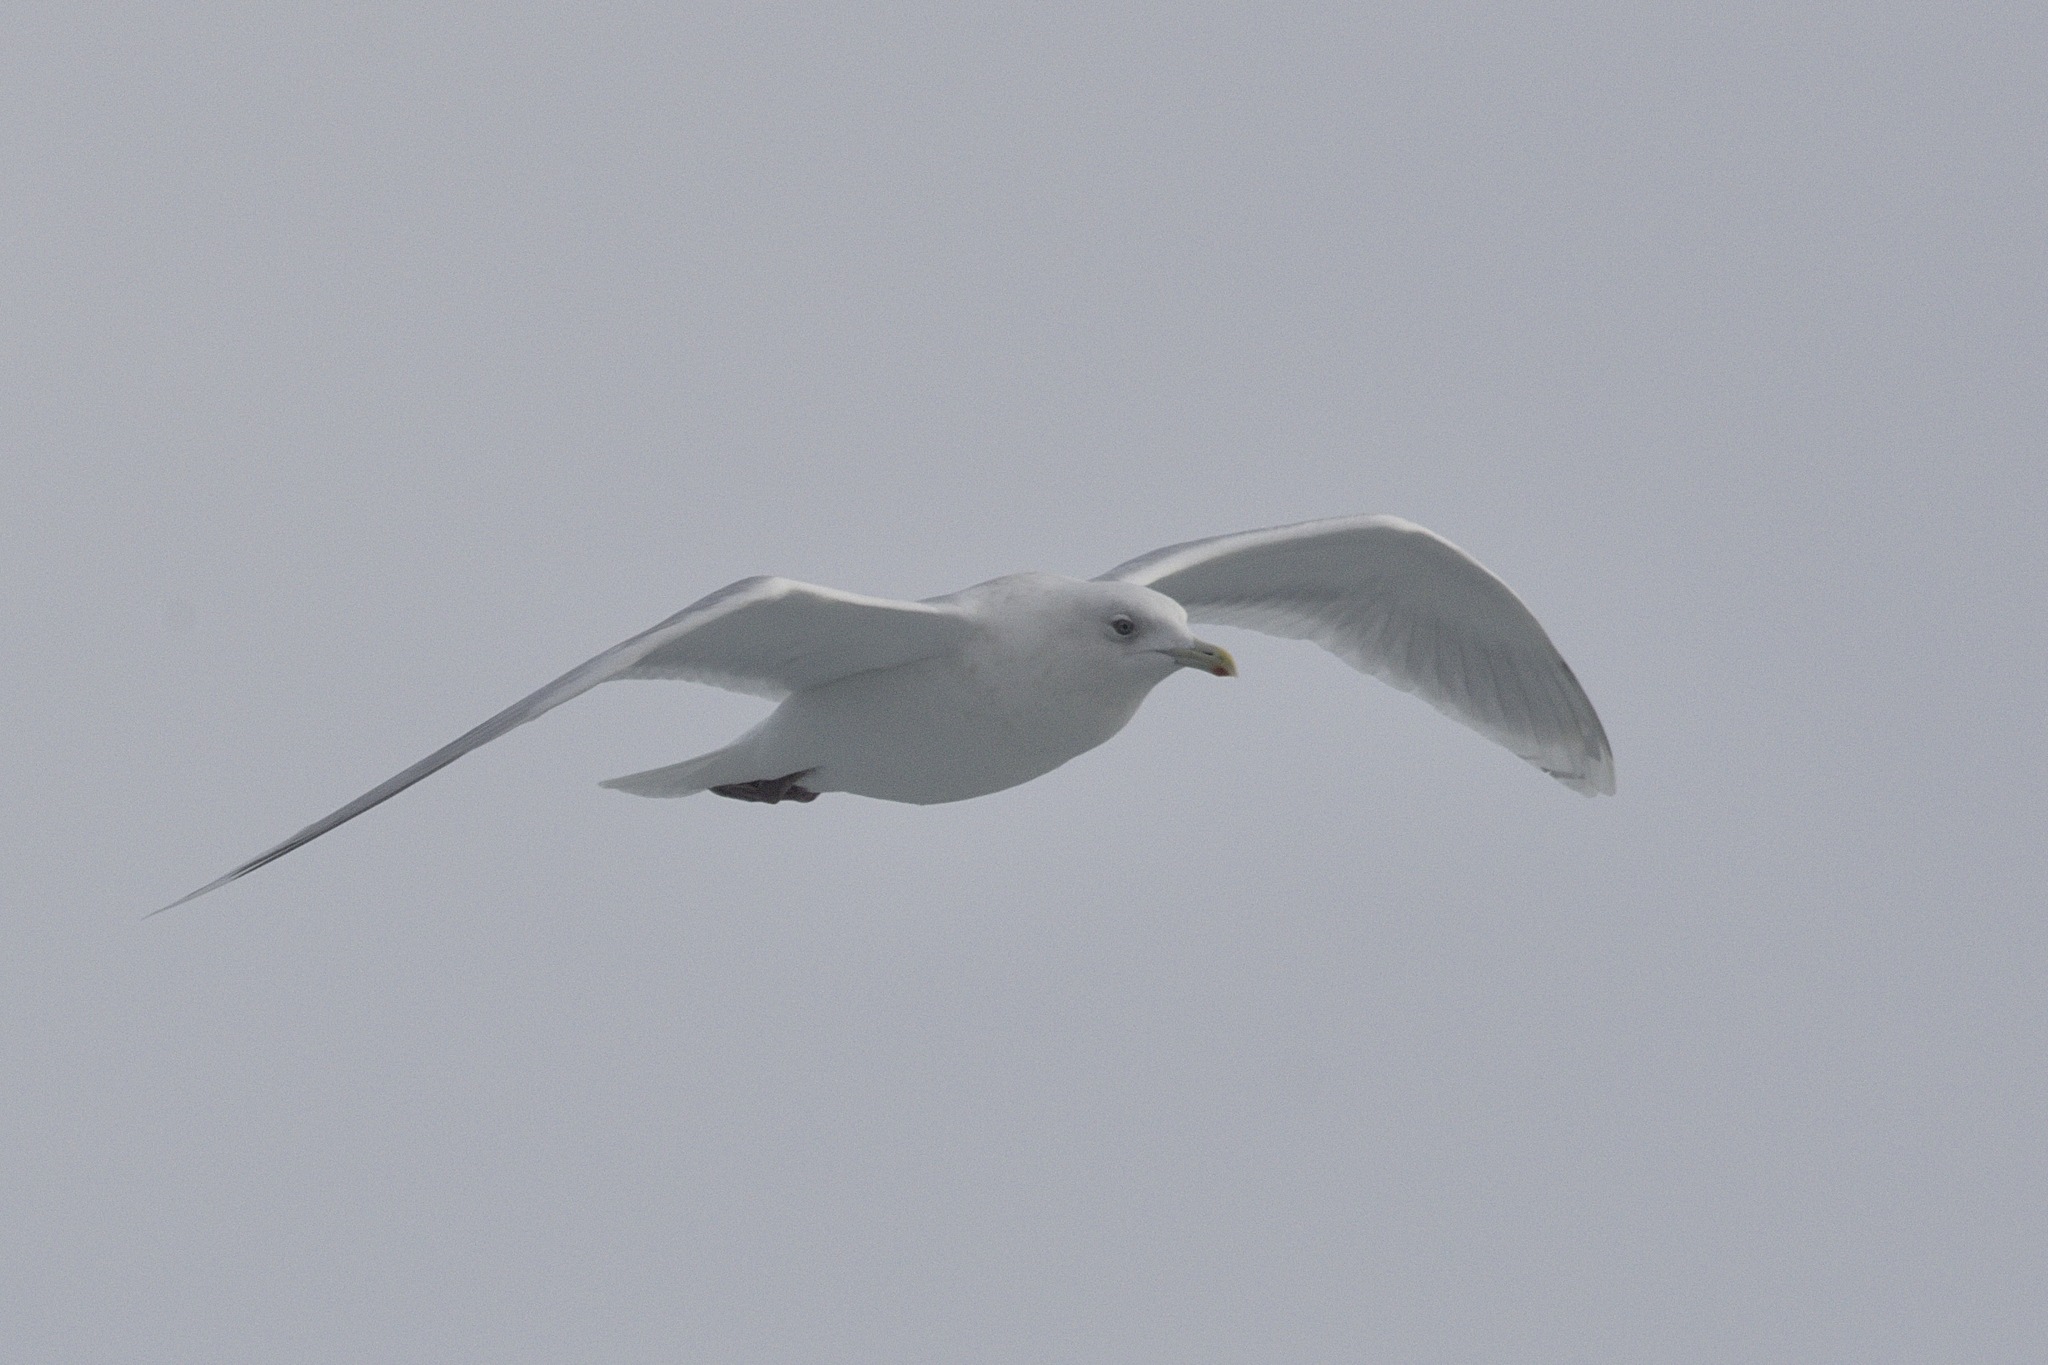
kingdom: Animalia
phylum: Chordata
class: Aves
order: Charadriiformes
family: Laridae
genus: Larus
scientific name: Larus glaucoides
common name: Iceland gull
